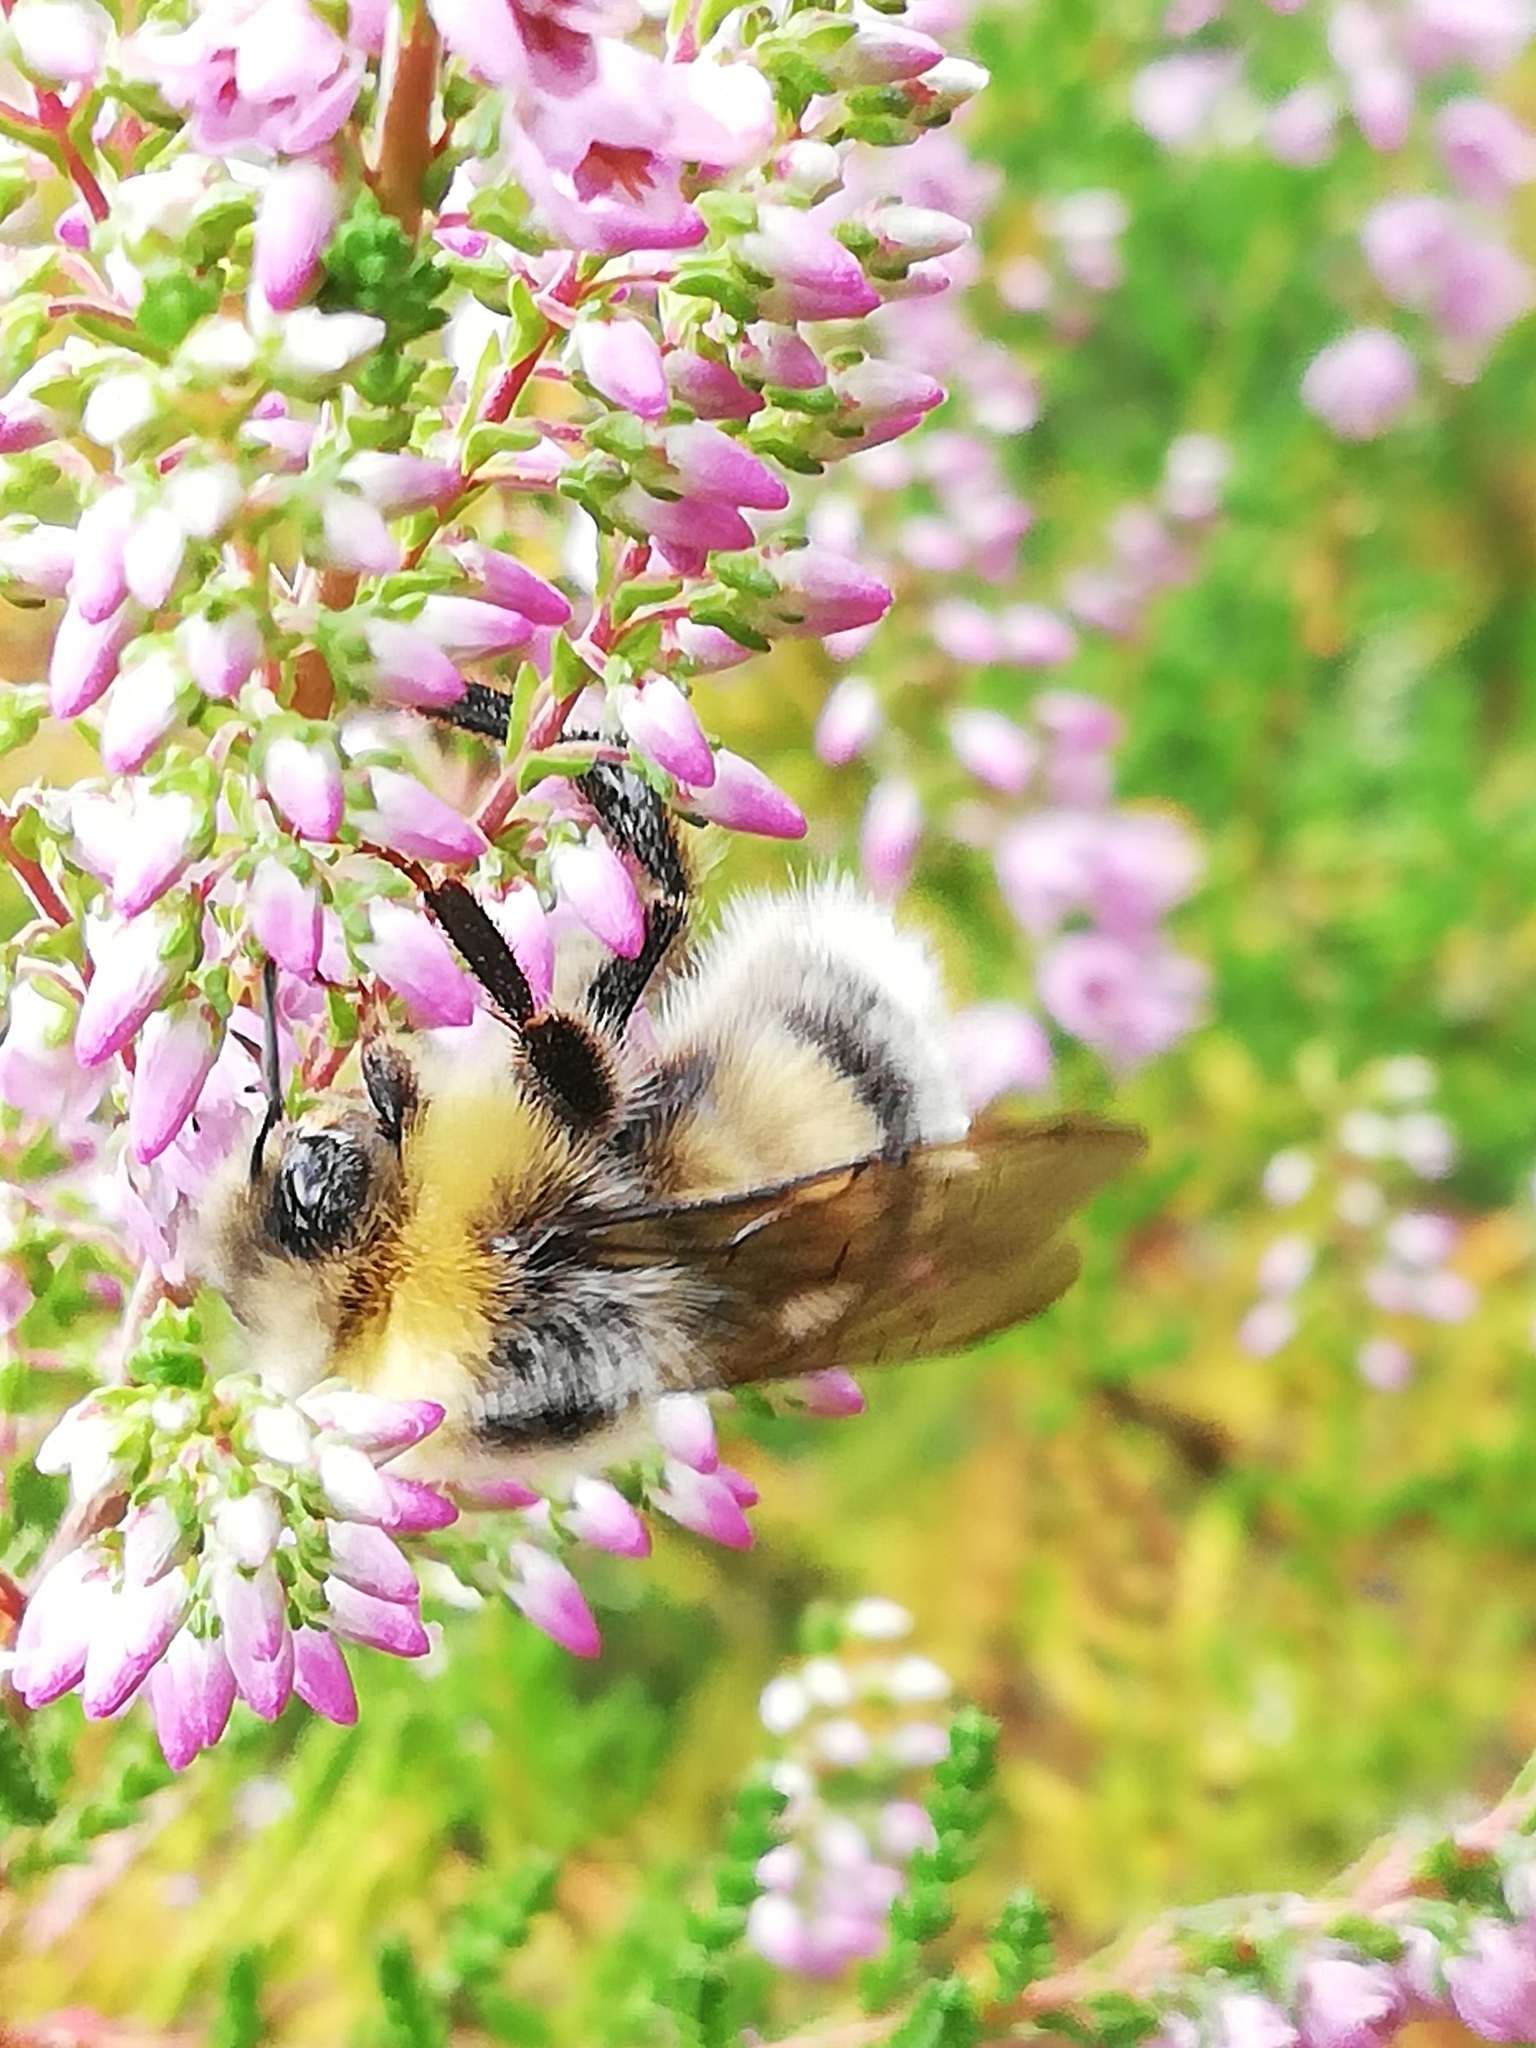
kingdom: Animalia
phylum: Arthropoda
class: Insecta
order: Hymenoptera
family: Apidae
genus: Bombus
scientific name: Bombus lucorum
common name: White-tailed bumblebee
